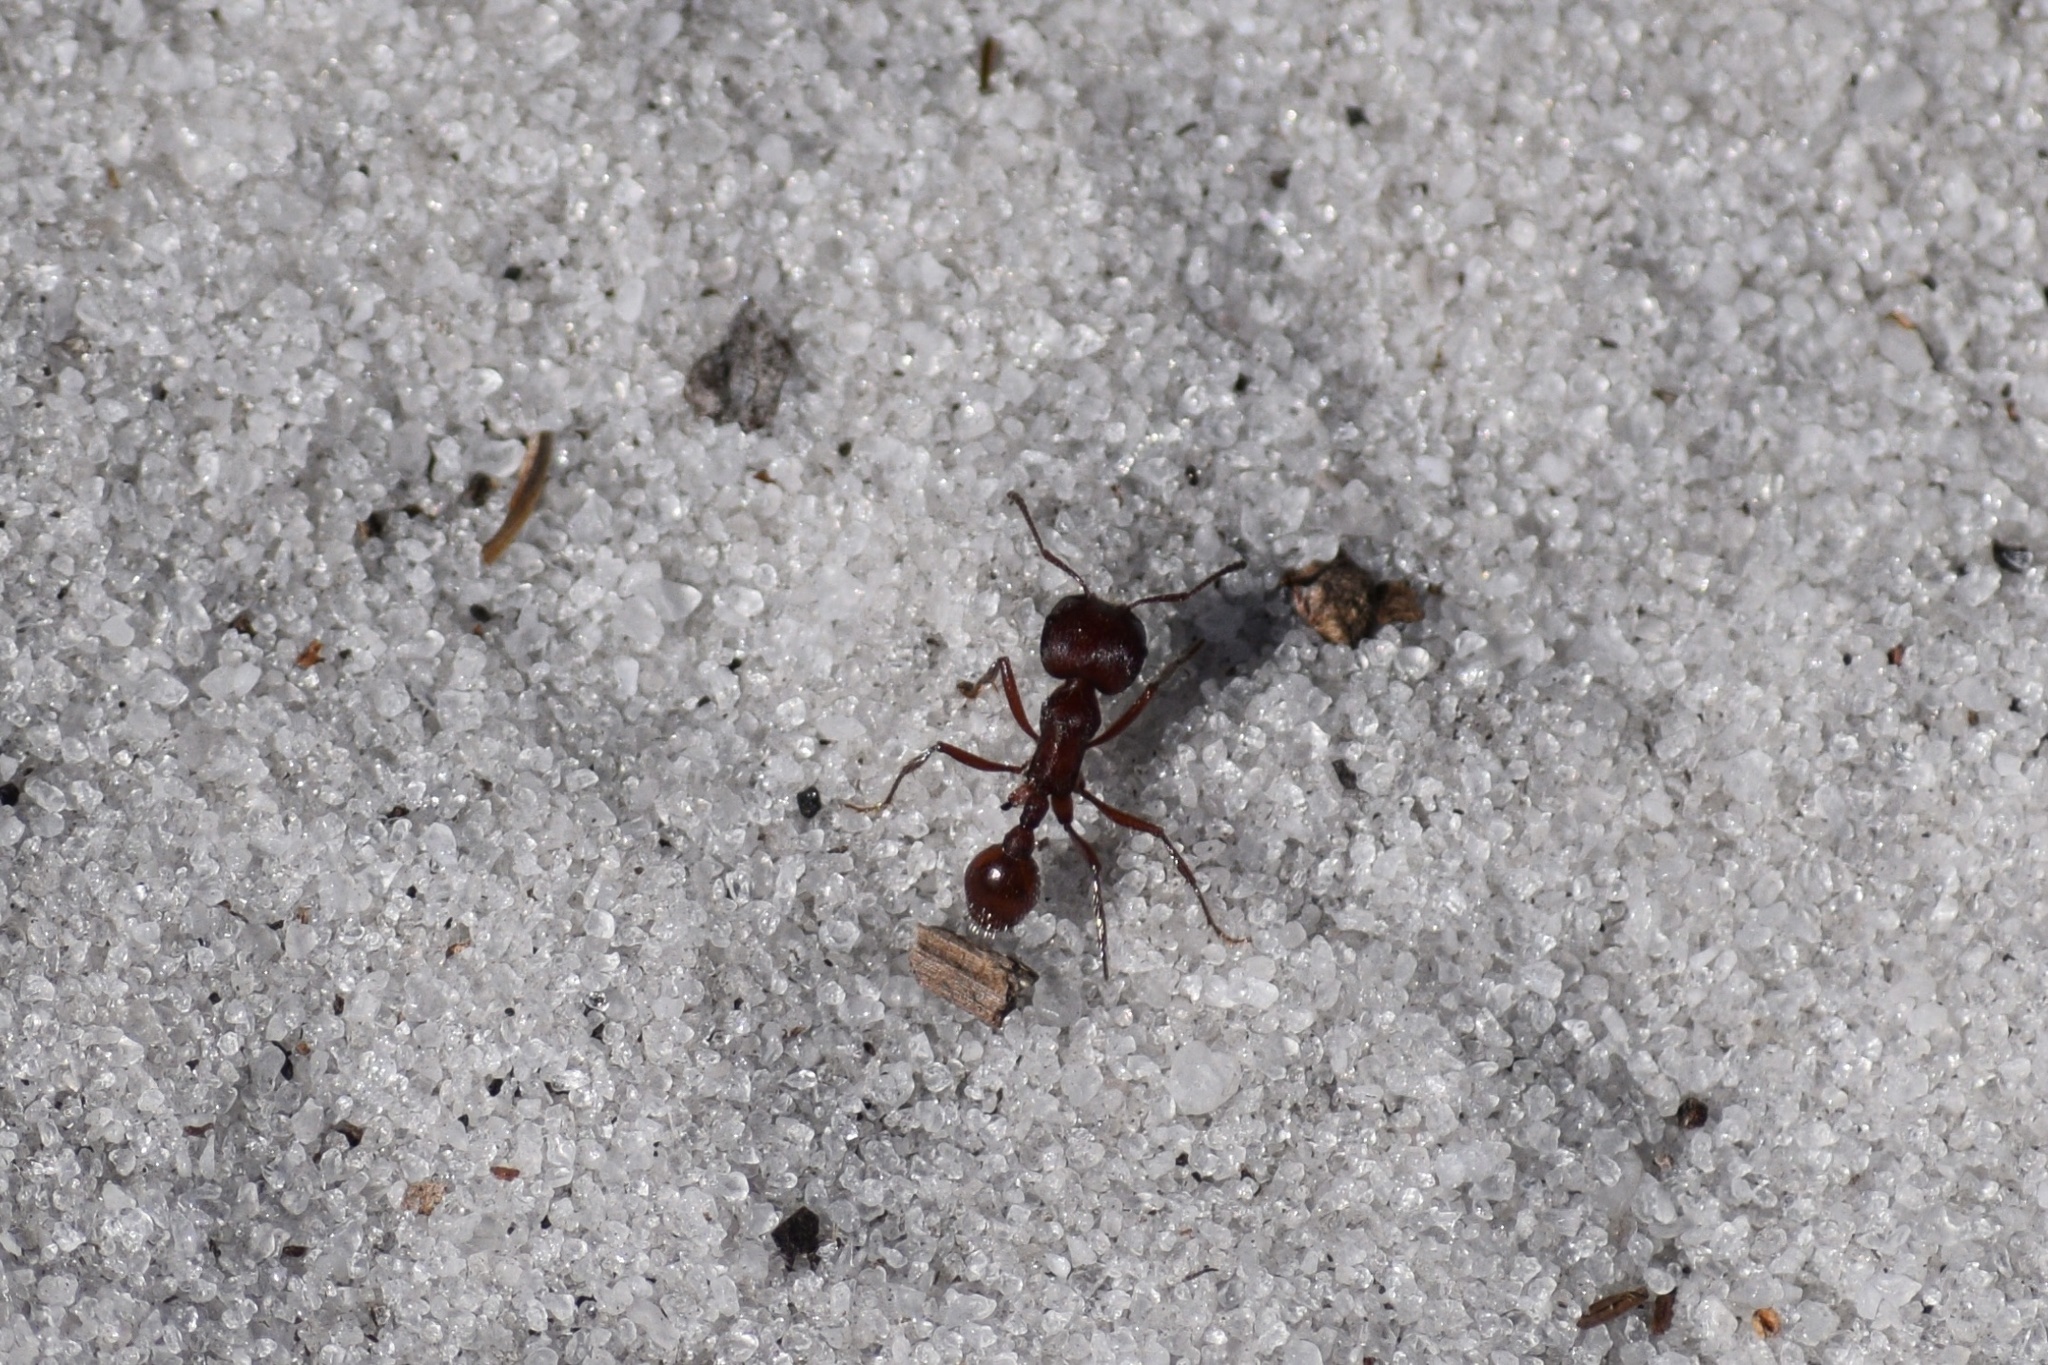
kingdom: Animalia
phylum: Arthropoda
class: Insecta
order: Hymenoptera
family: Formicidae
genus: Pogonomyrmex
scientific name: Pogonomyrmex badius
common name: Florida harvester ant
